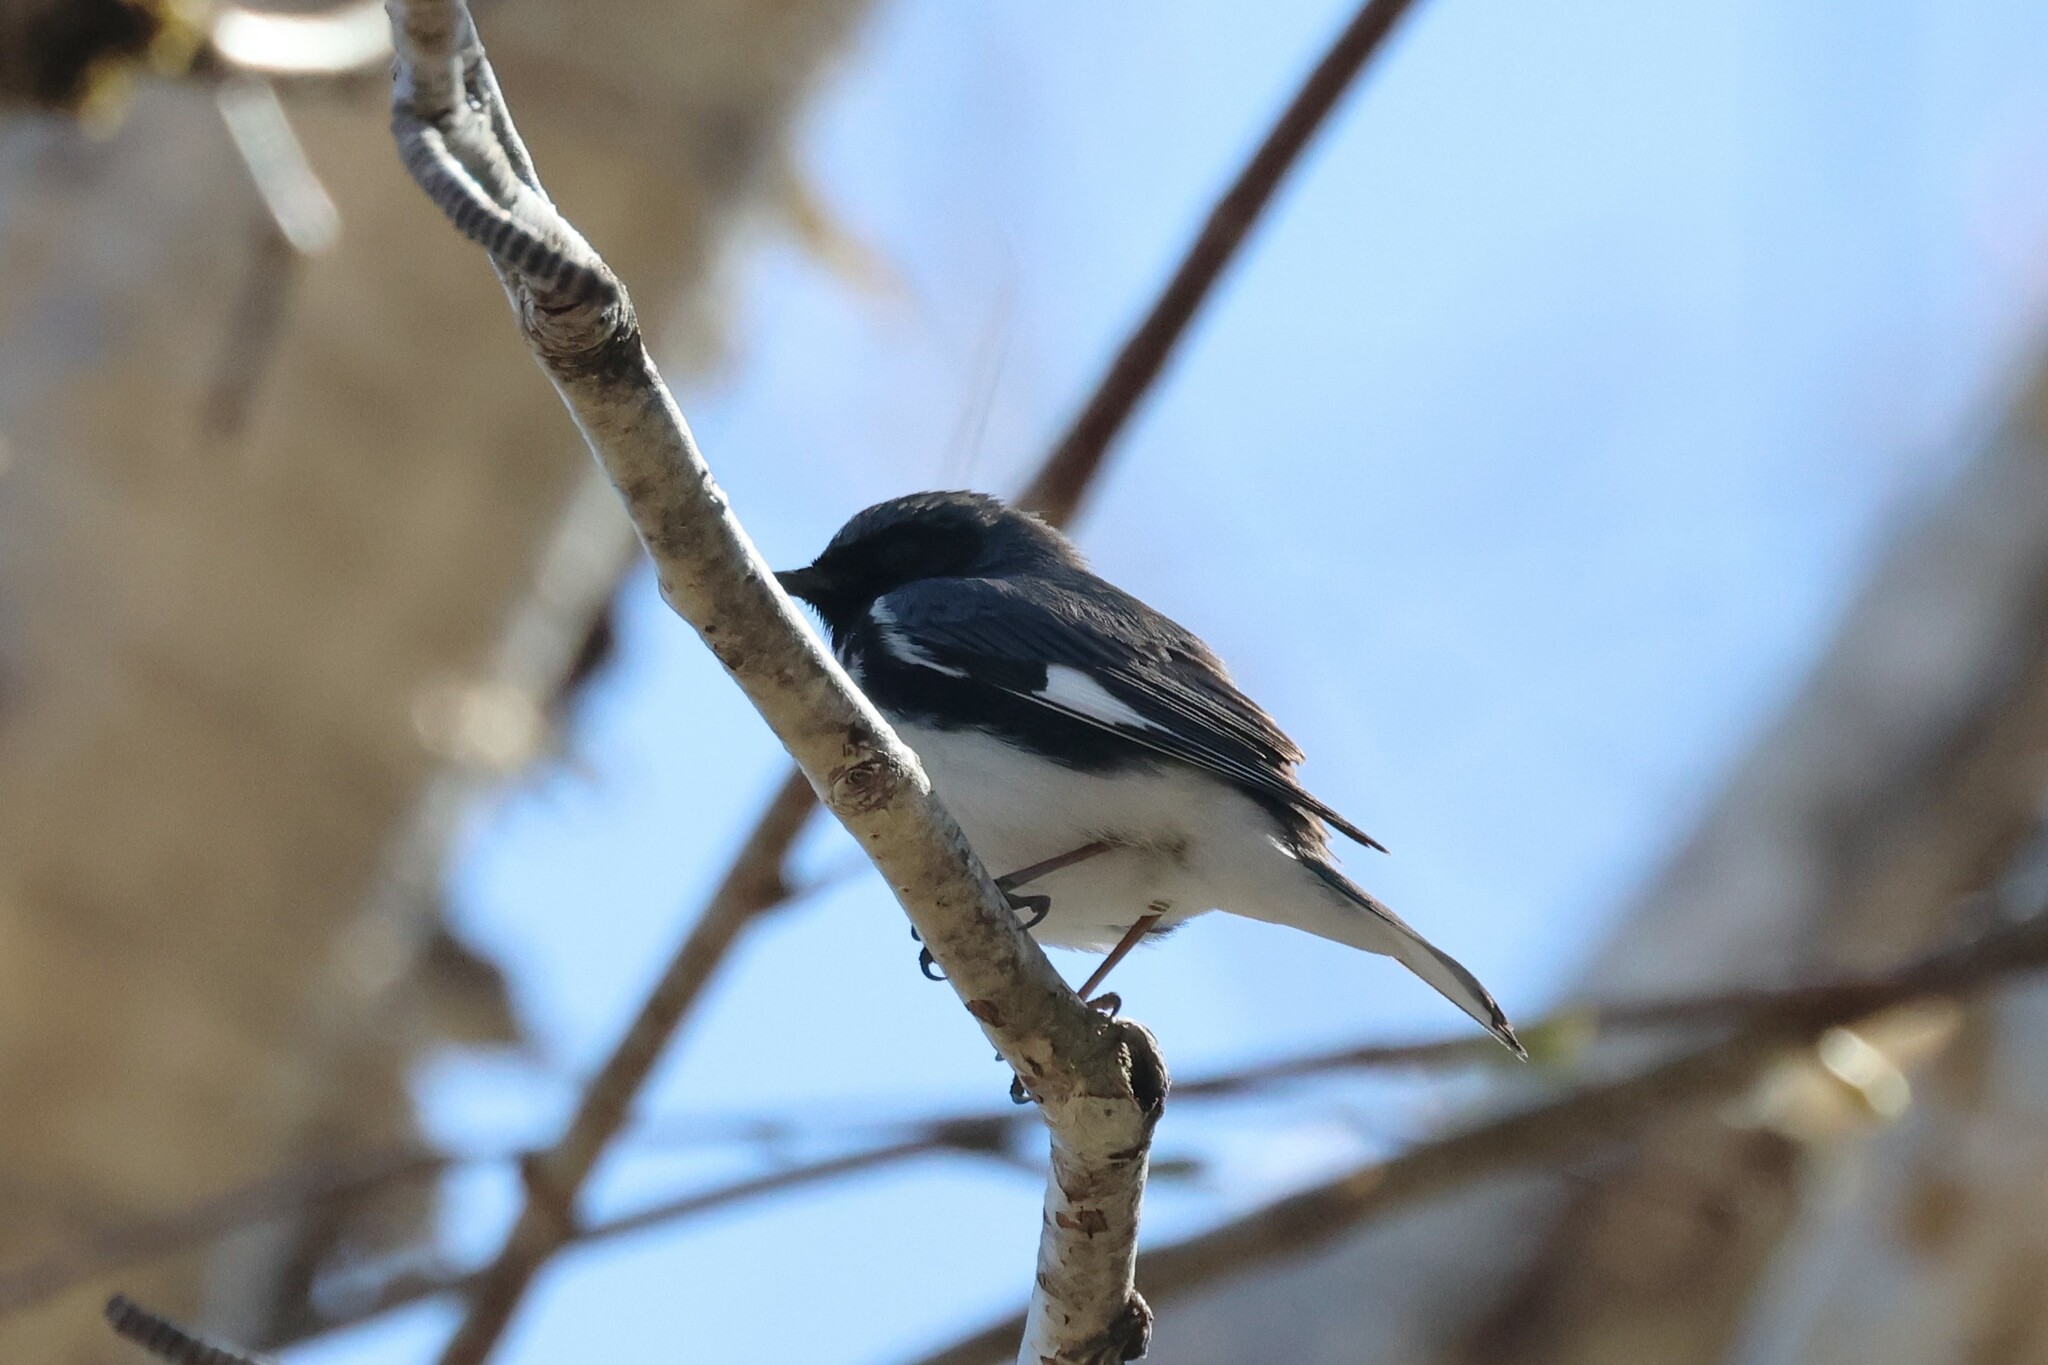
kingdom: Animalia
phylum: Chordata
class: Aves
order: Passeriformes
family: Parulidae
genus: Setophaga
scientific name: Setophaga caerulescens
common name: Black-throated blue warbler
